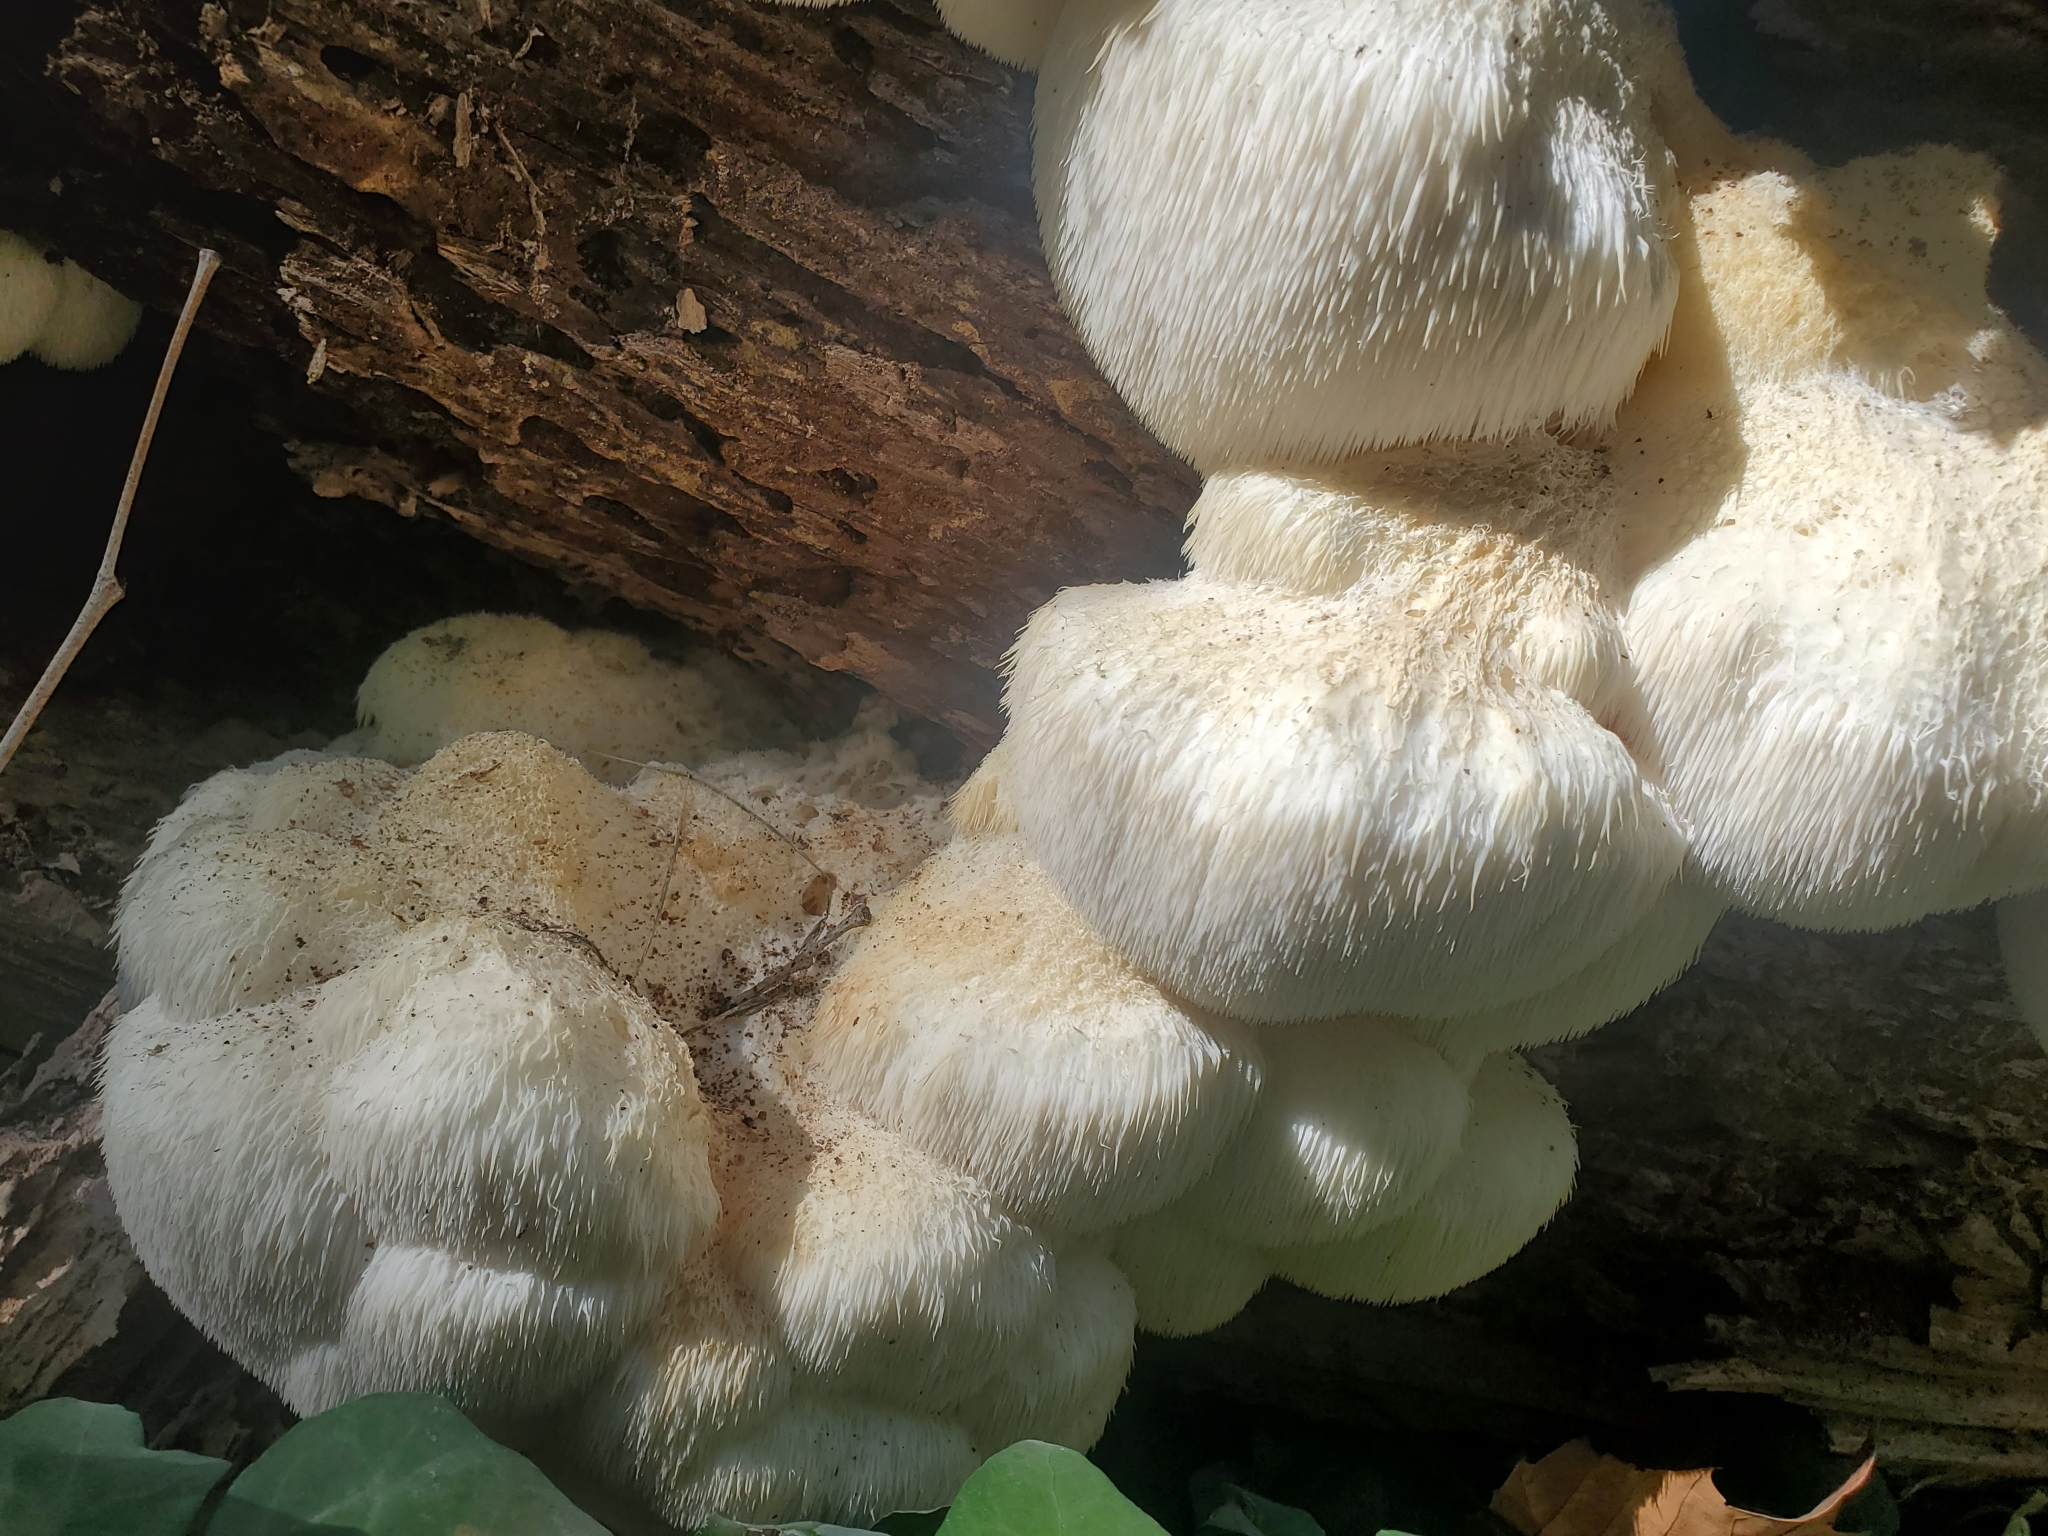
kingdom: Fungi
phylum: Basidiomycota
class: Agaricomycetes
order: Russulales
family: Hericiaceae
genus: Hericium
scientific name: Hericium erinaceus
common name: Bearded tooth
